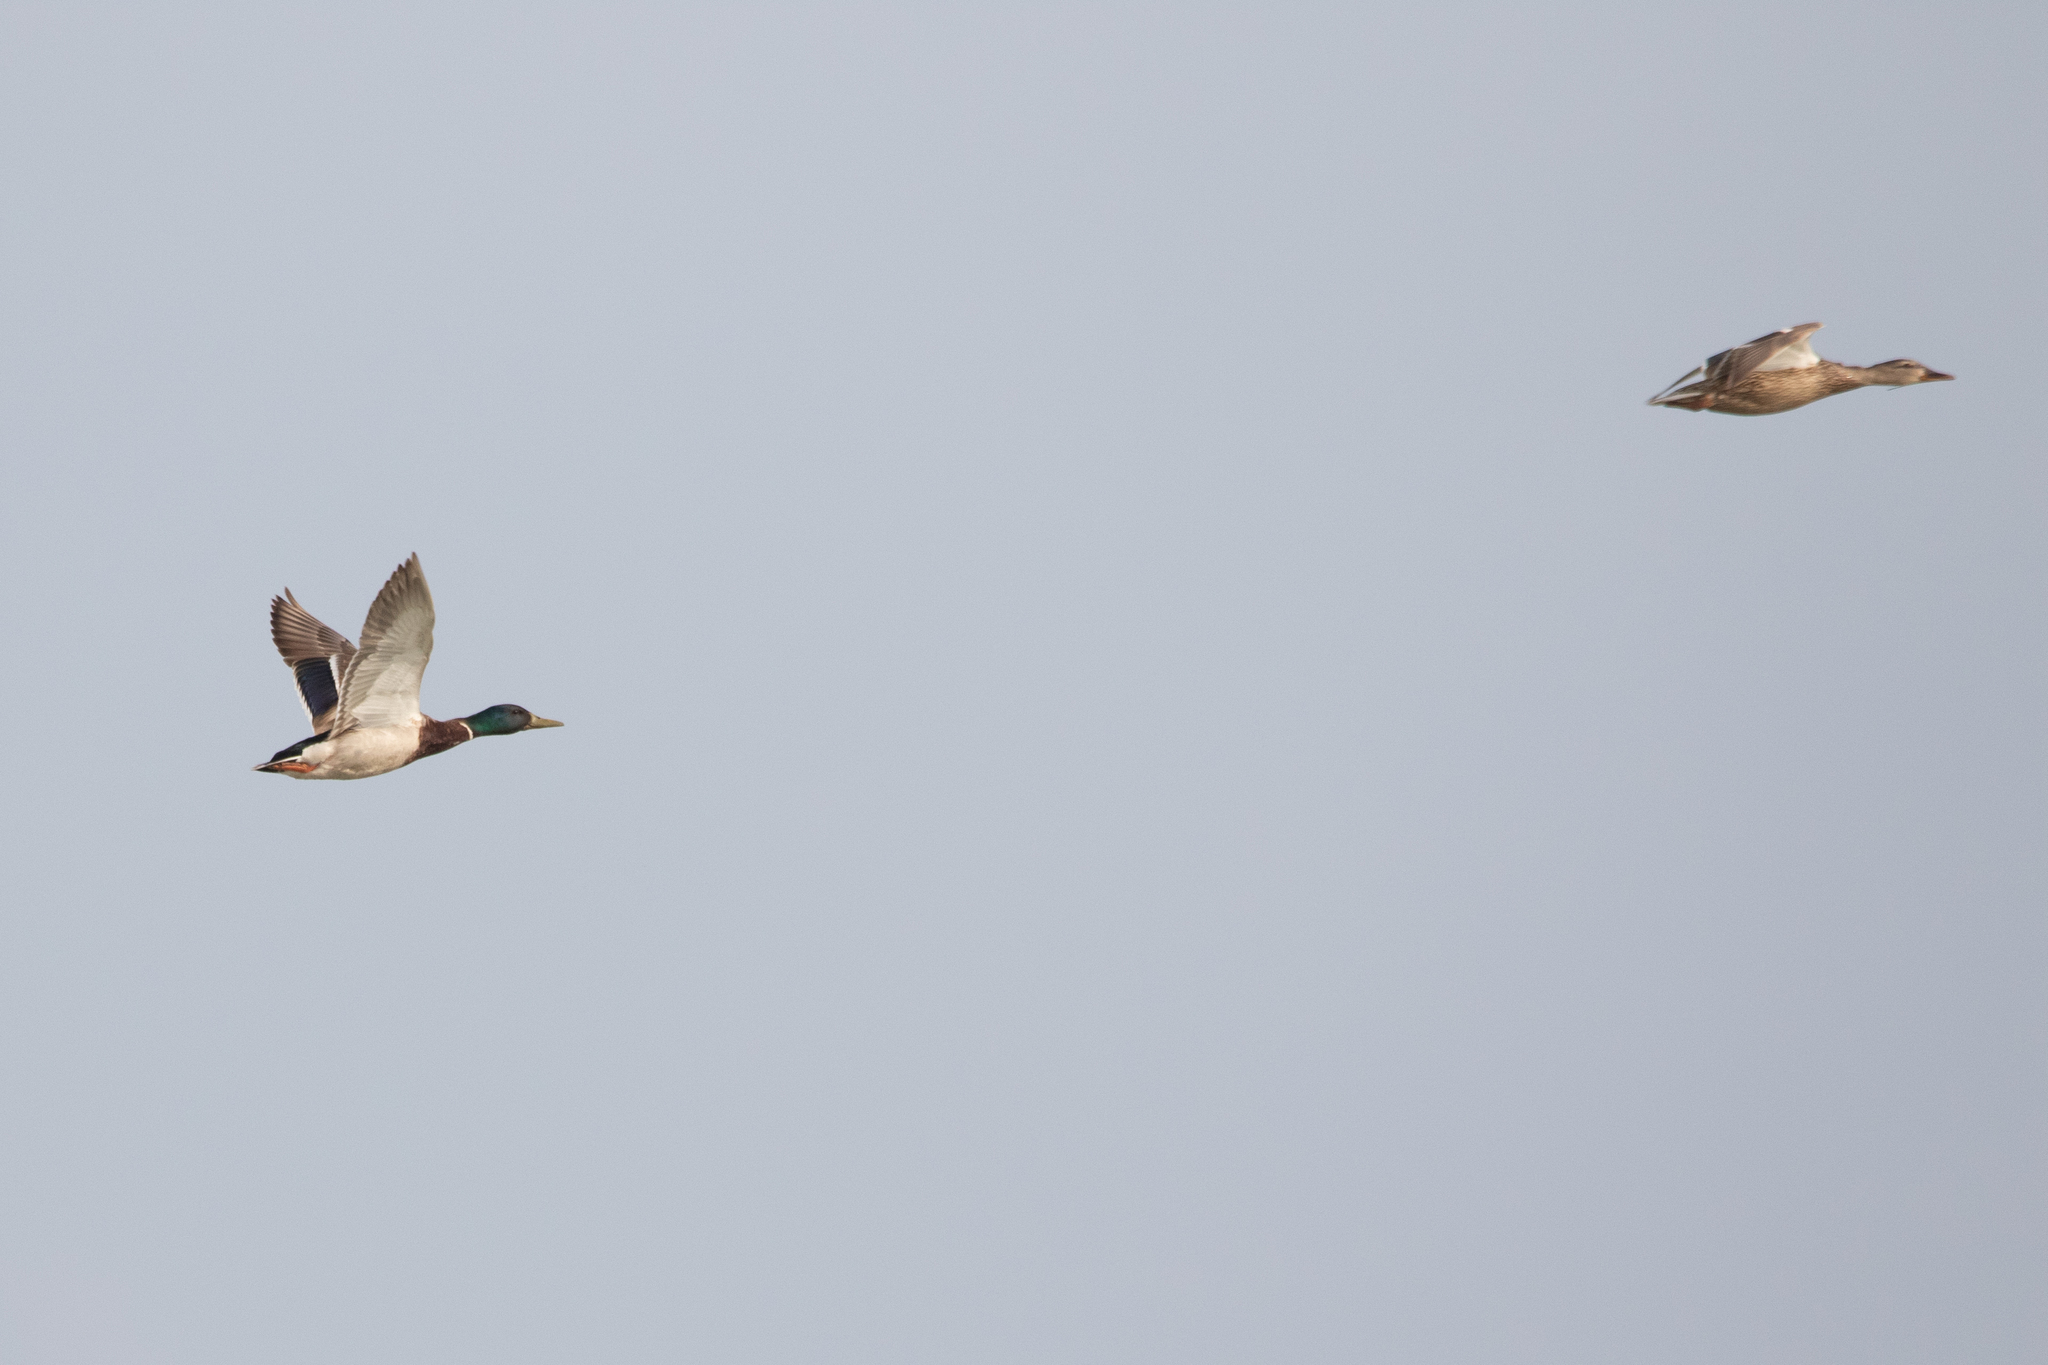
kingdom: Animalia
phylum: Chordata
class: Aves
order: Anseriformes
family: Anatidae
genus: Anas
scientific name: Anas platyrhynchos
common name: Mallard
